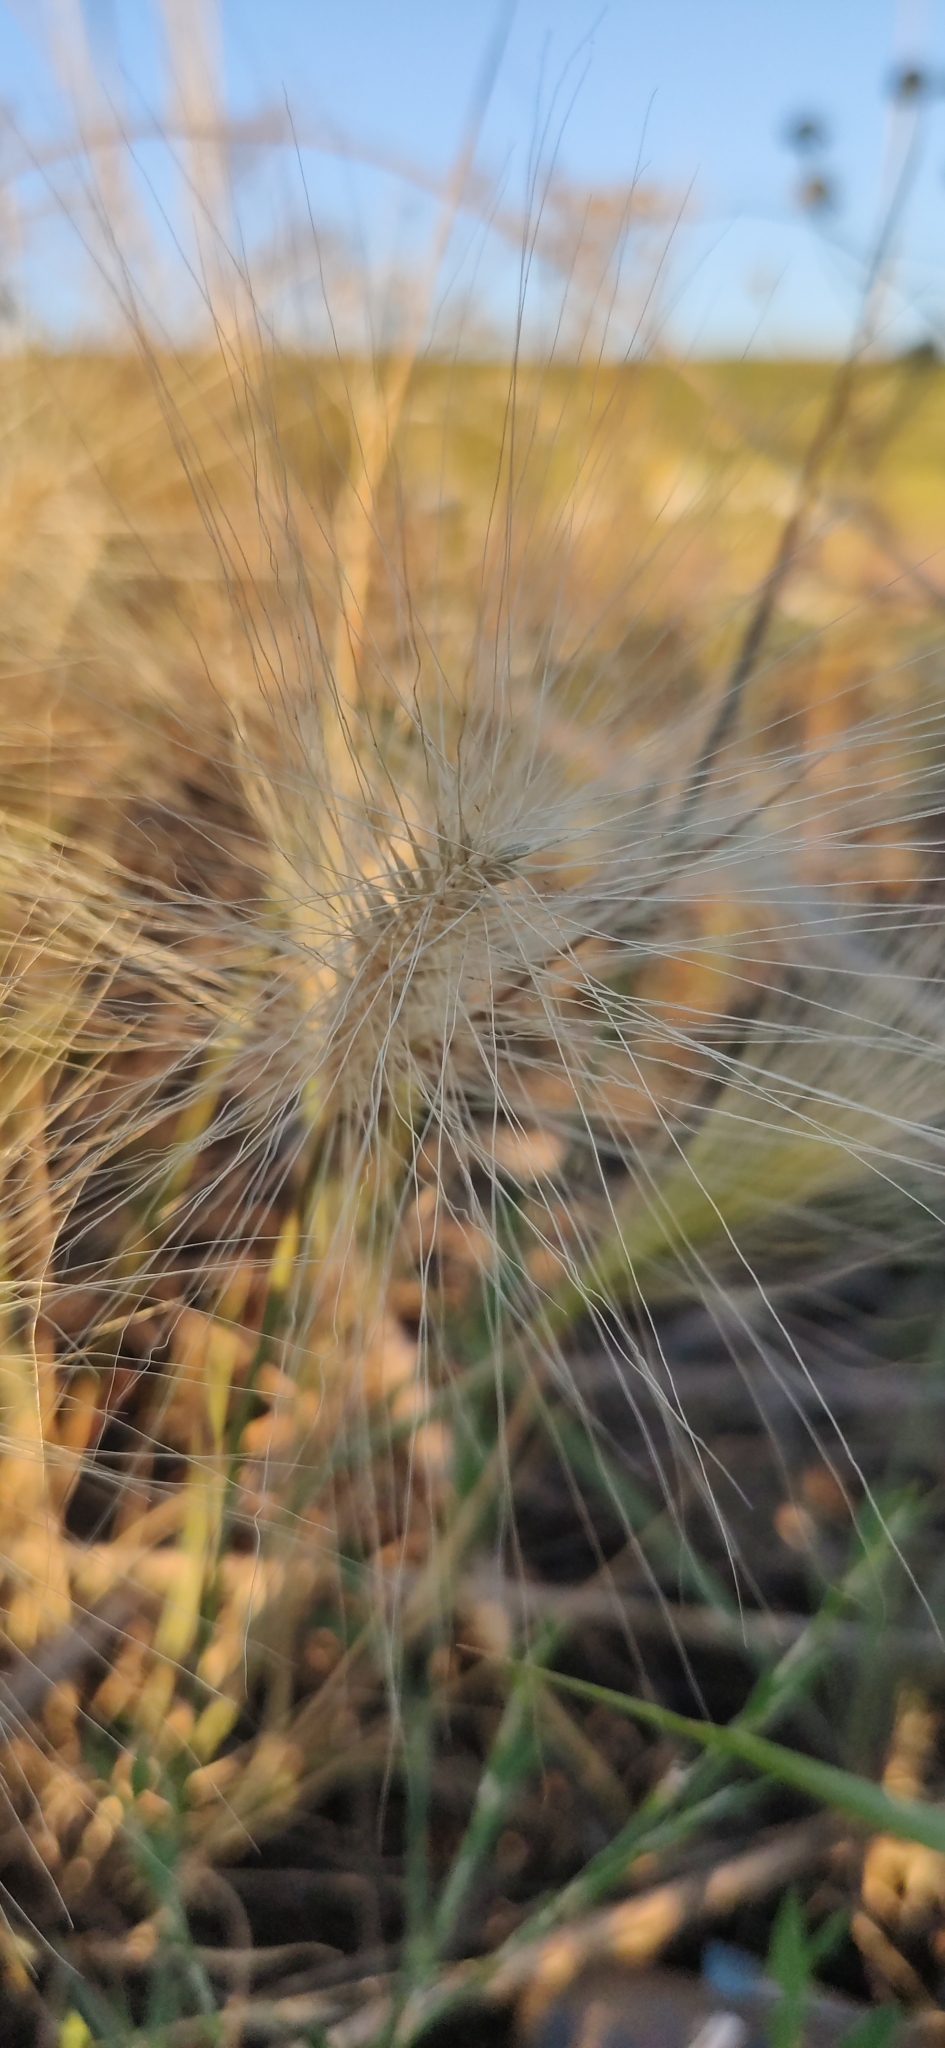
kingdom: Plantae
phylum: Tracheophyta
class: Liliopsida
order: Poales
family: Poaceae
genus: Hordeum
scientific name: Hordeum jubatum
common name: Foxtail barley
